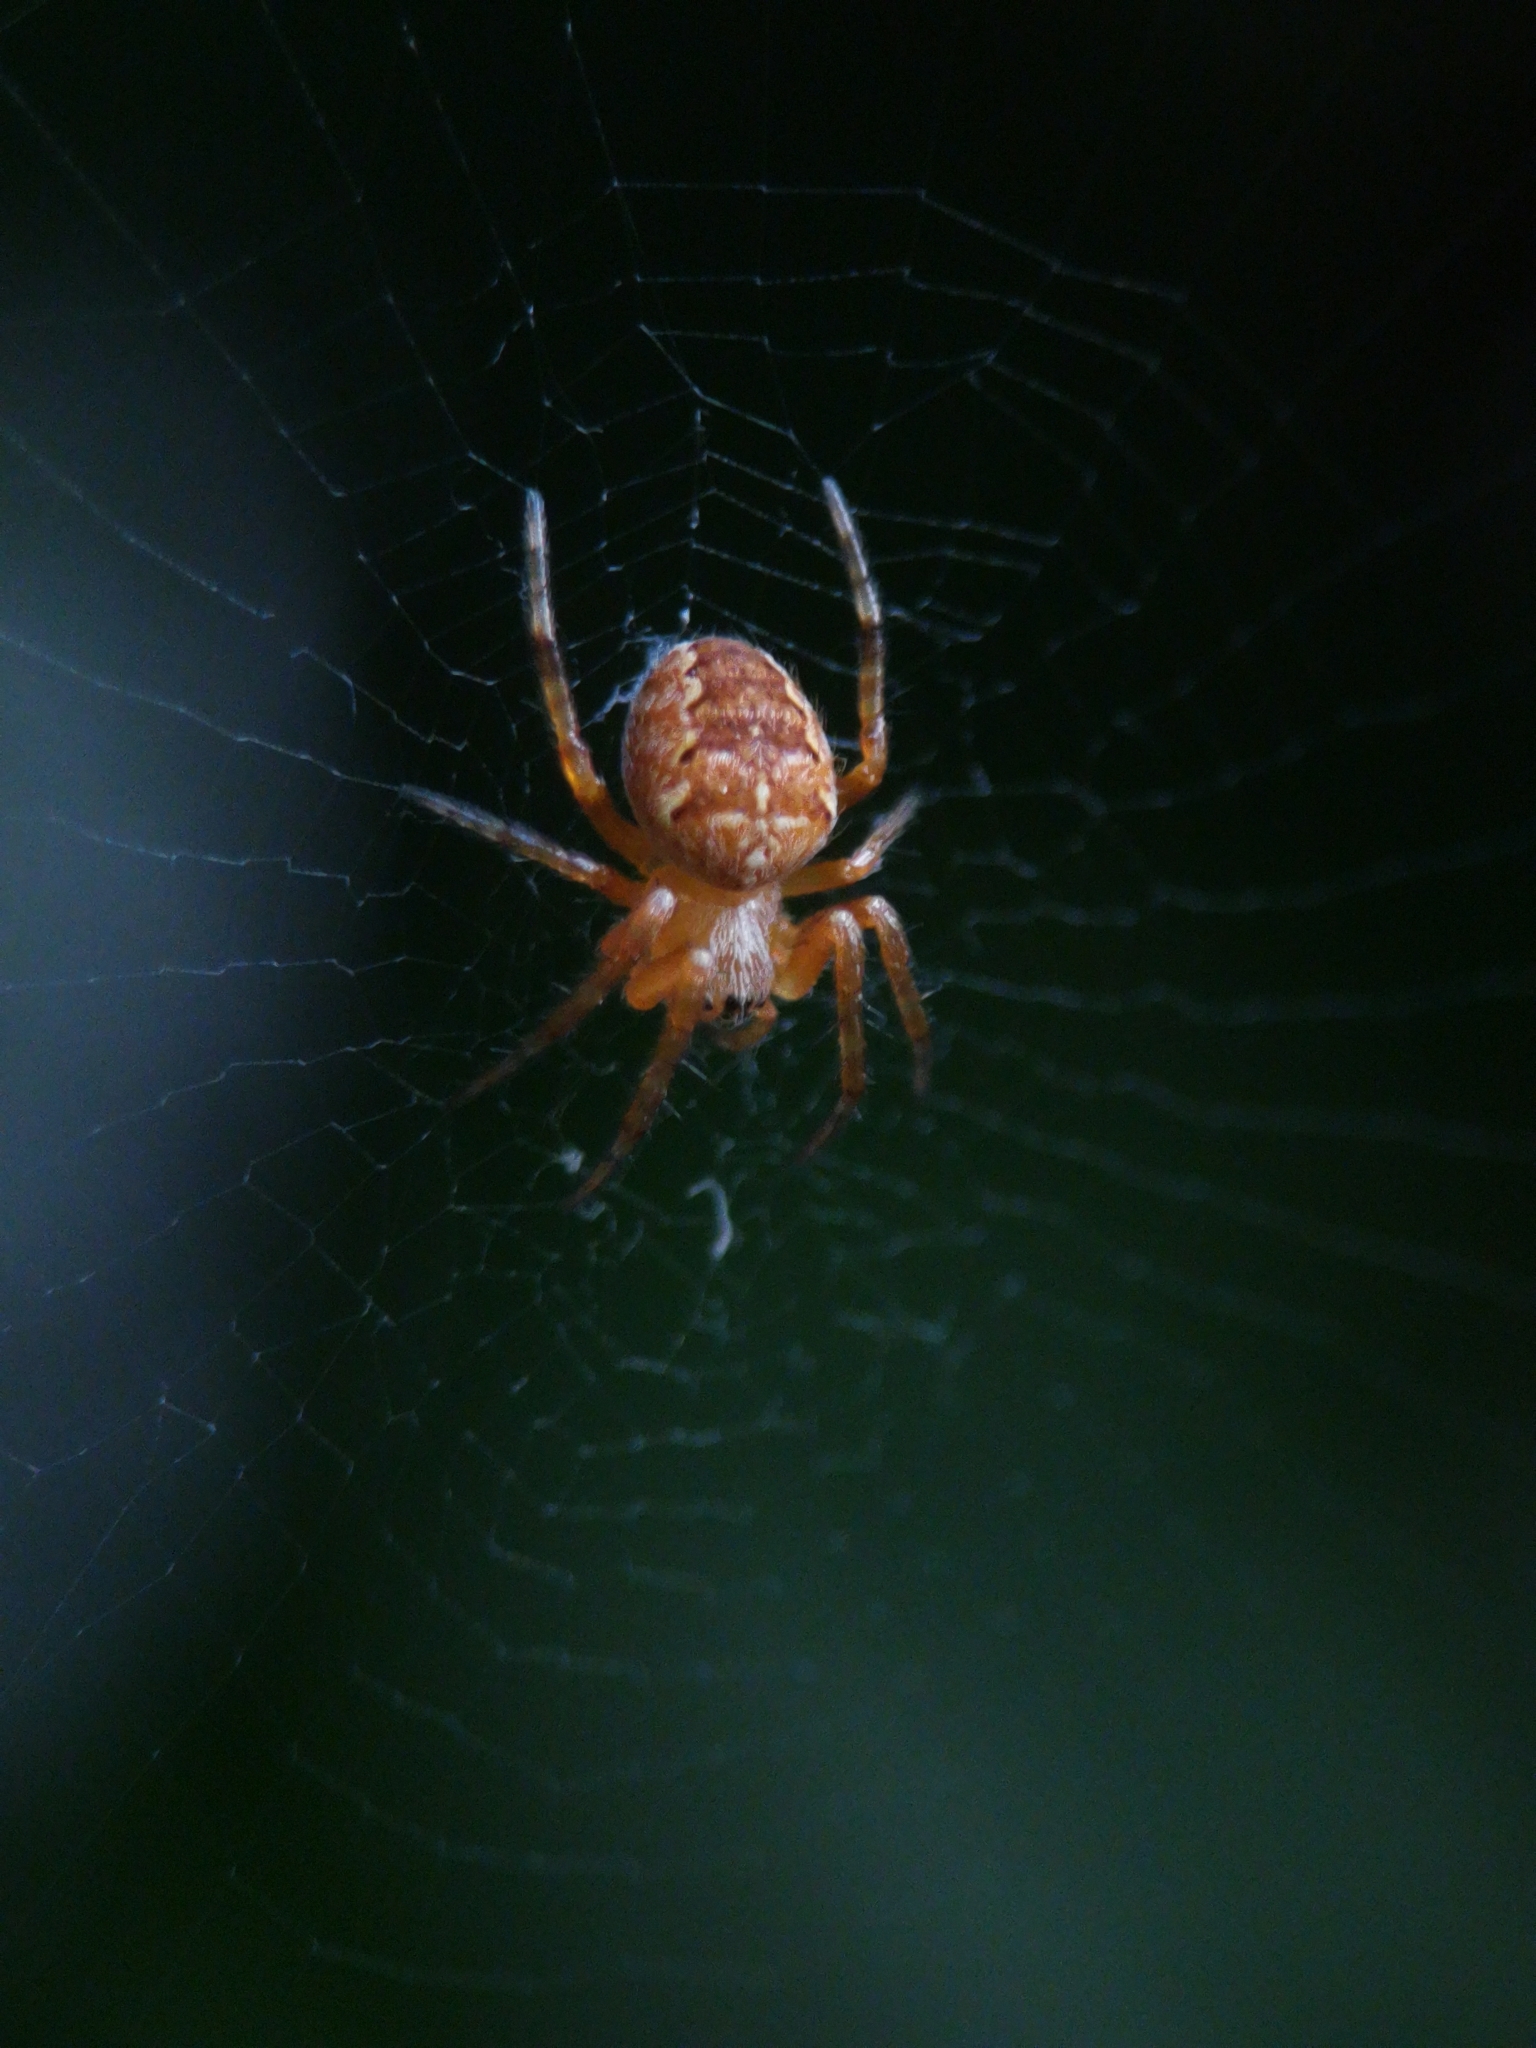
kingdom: Animalia
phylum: Arthropoda
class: Arachnida
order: Araneae
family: Araneidae
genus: Araneus
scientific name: Araneus diadematus
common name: Cross orbweaver
